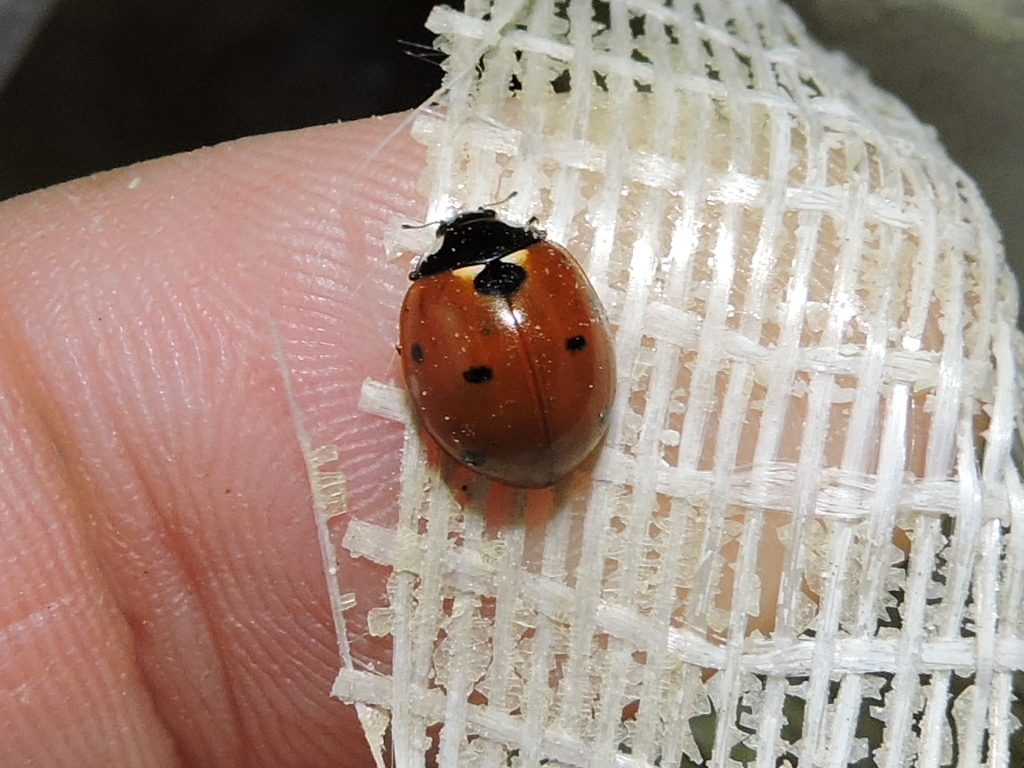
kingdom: Animalia
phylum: Arthropoda
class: Insecta
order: Coleoptera
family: Coccinellidae
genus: Coccinella
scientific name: Coccinella septempunctata
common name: Sevenspotted lady beetle
